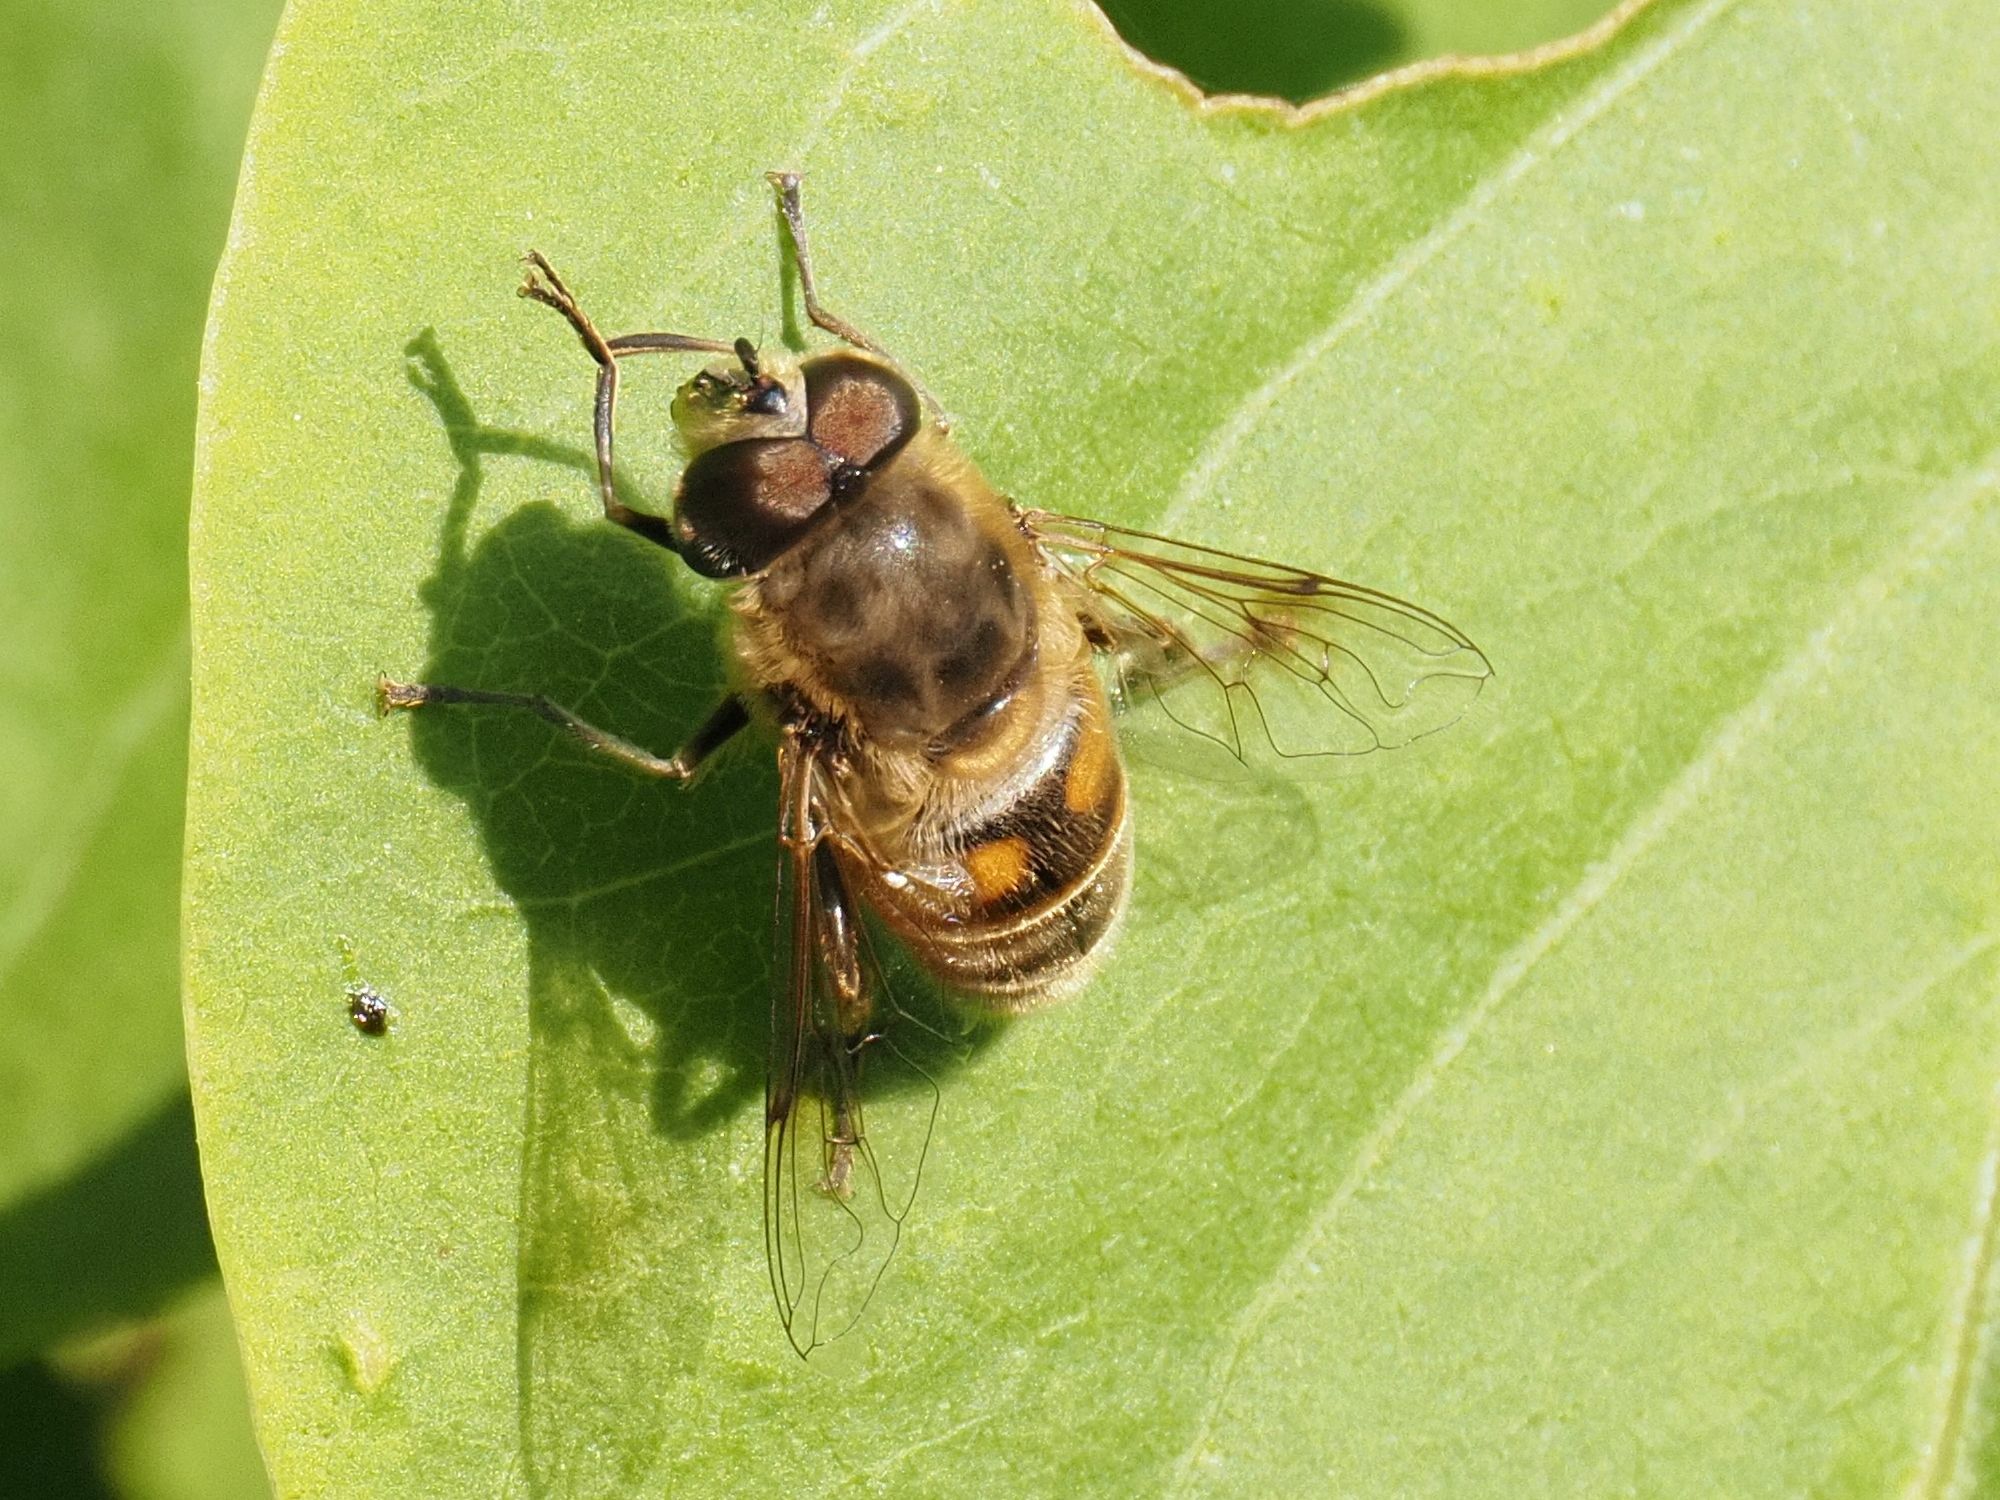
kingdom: Animalia
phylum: Arthropoda
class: Insecta
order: Diptera
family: Syrphidae
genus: Eristalis
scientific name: Eristalis tenax
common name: Drone fly
